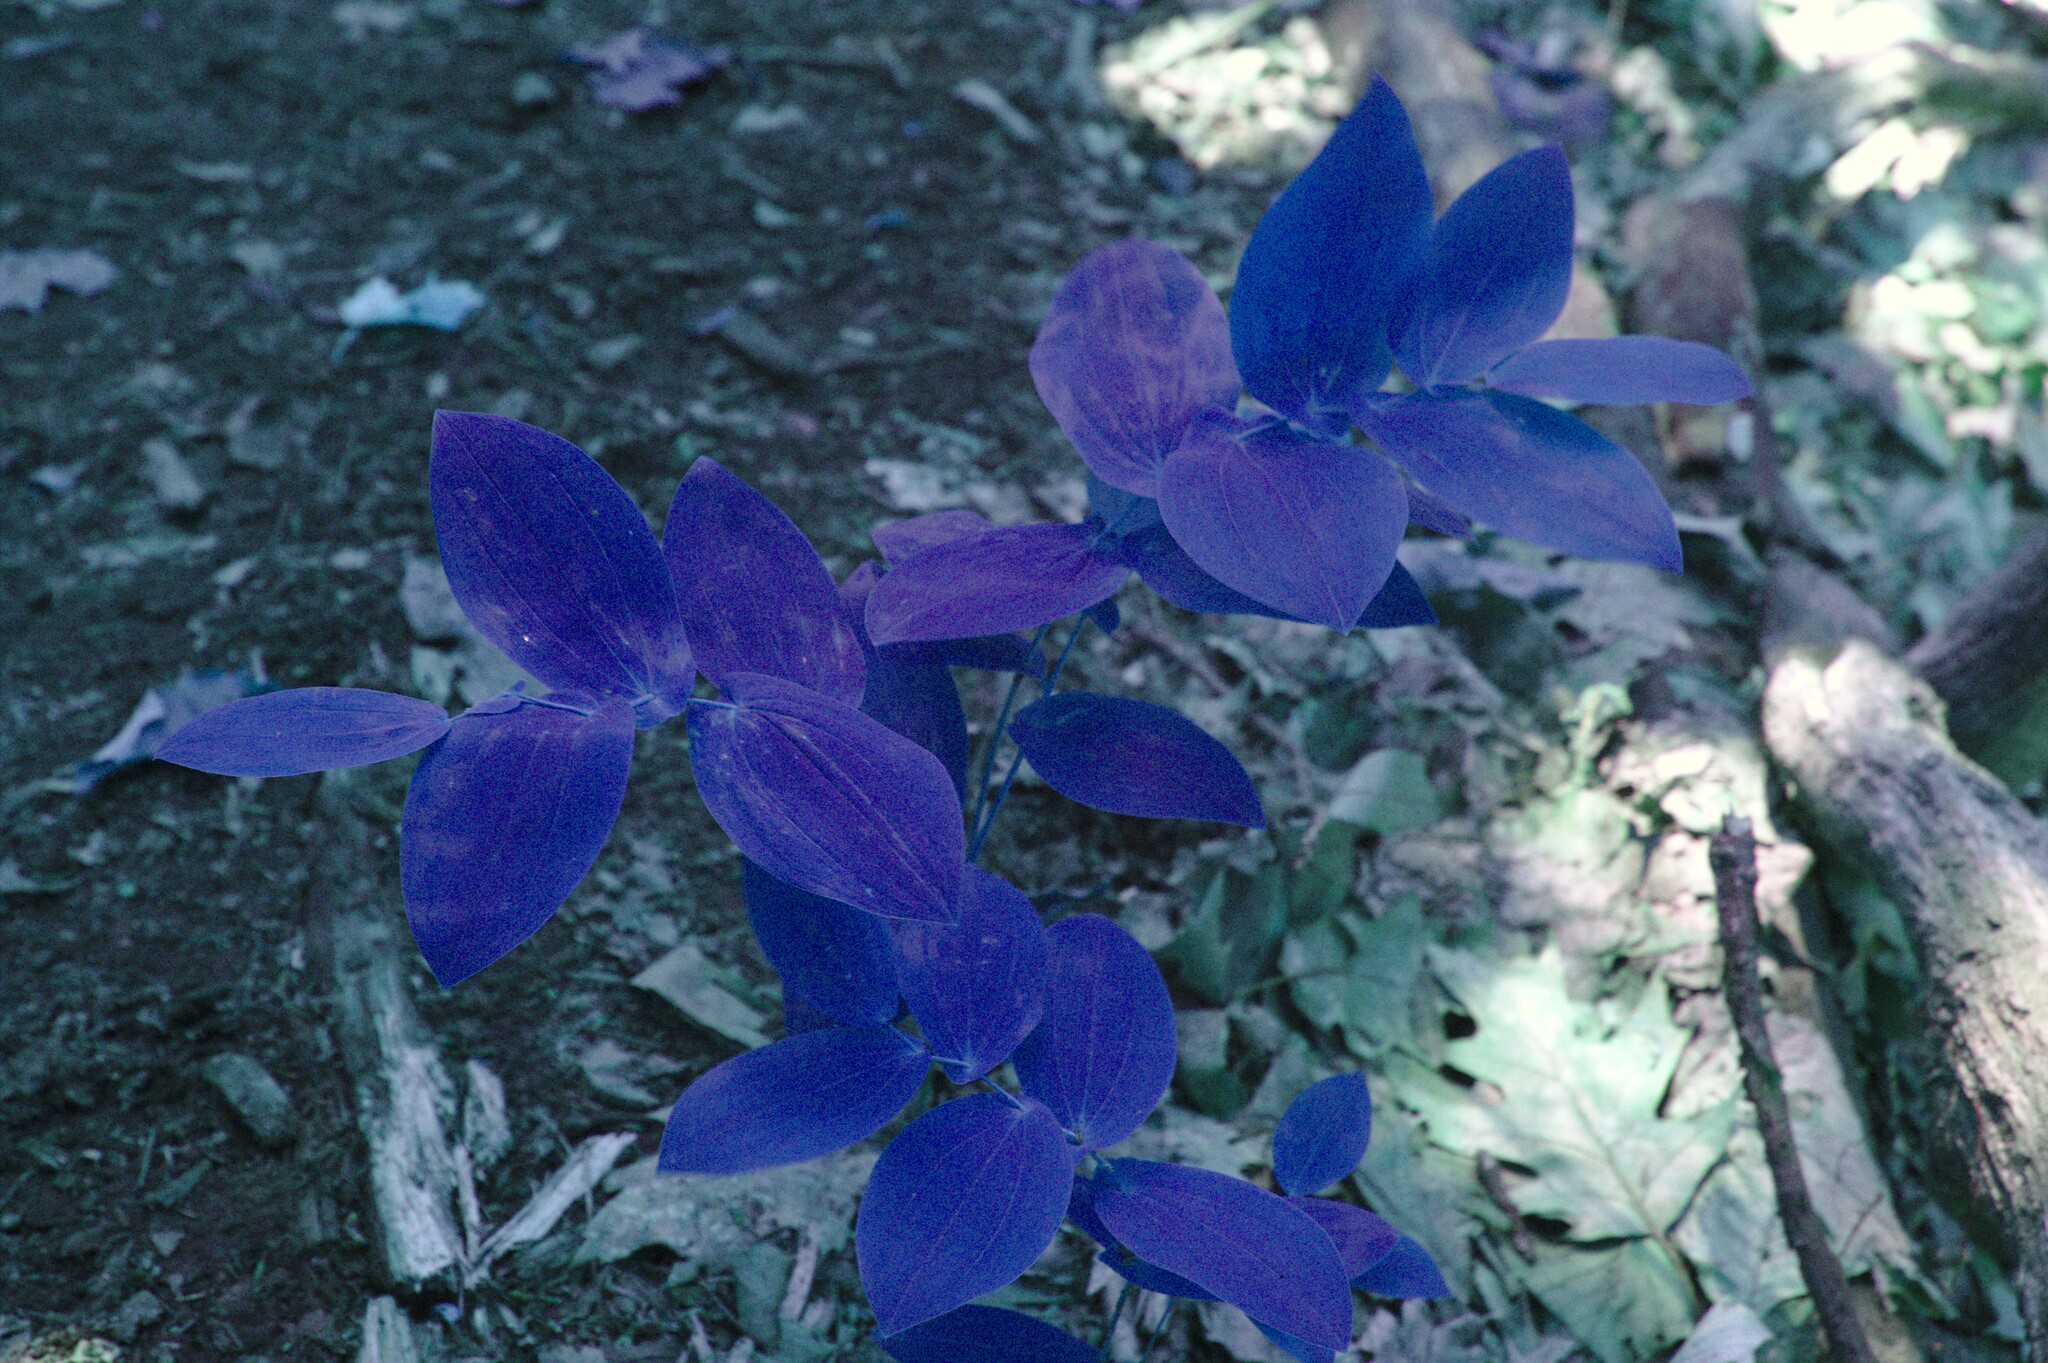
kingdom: Plantae
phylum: Tracheophyta
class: Liliopsida
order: Liliales
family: Colchicaceae
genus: Uvularia
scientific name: Uvularia grandiflora
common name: Bellwort
